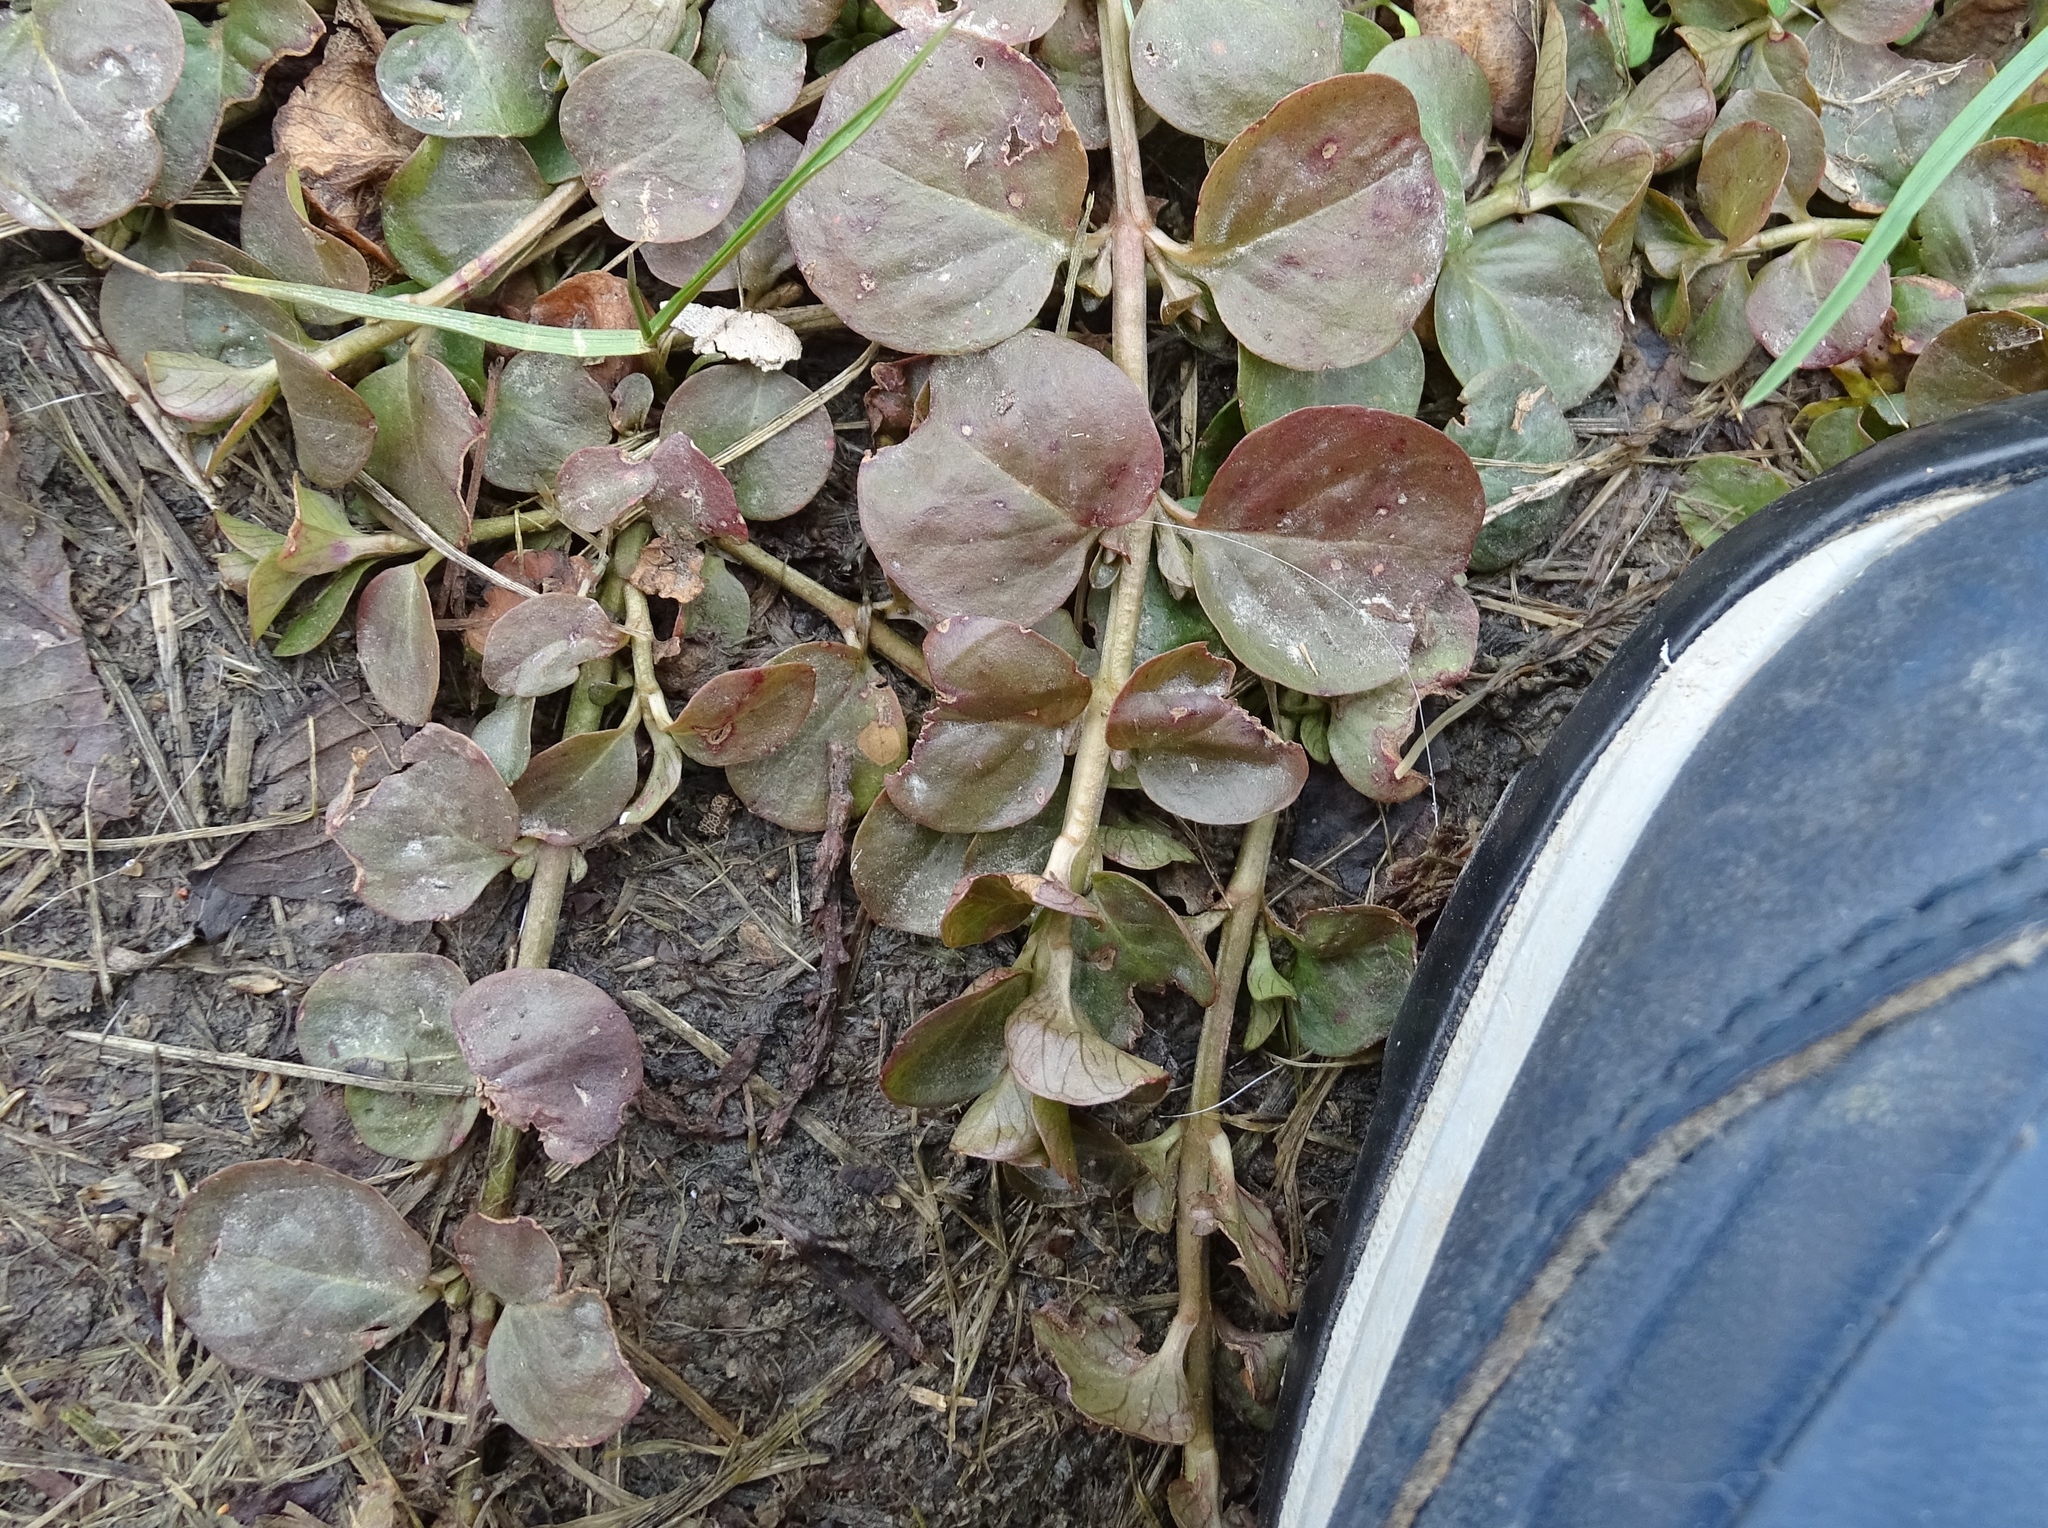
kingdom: Plantae
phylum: Tracheophyta
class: Magnoliopsida
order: Ericales
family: Primulaceae
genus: Lysimachia
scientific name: Lysimachia nummularia
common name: Moneywort
